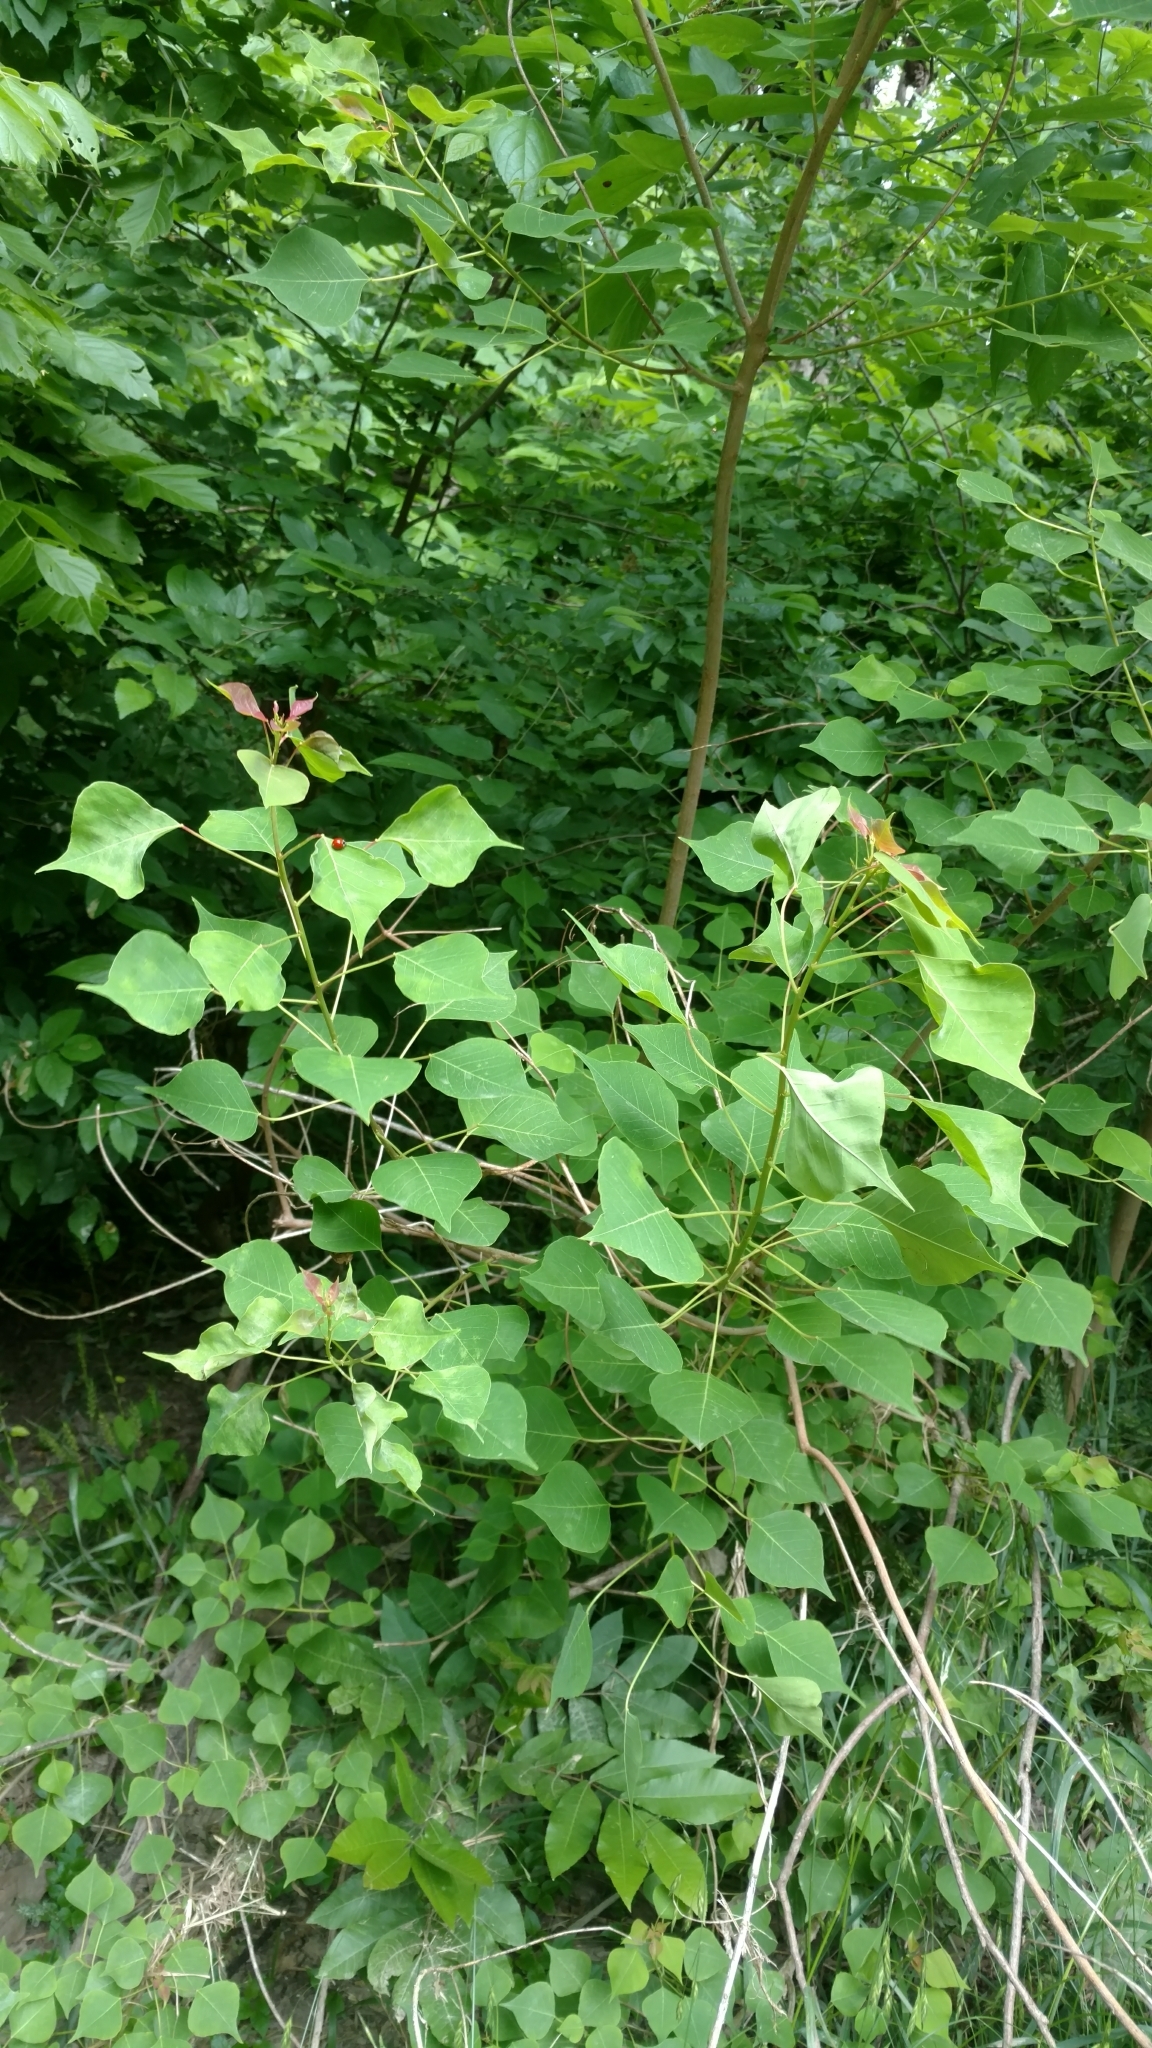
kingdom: Plantae
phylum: Tracheophyta
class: Magnoliopsida
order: Malpighiales
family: Euphorbiaceae
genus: Triadica
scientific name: Triadica sebifera
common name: Chinese tallow
